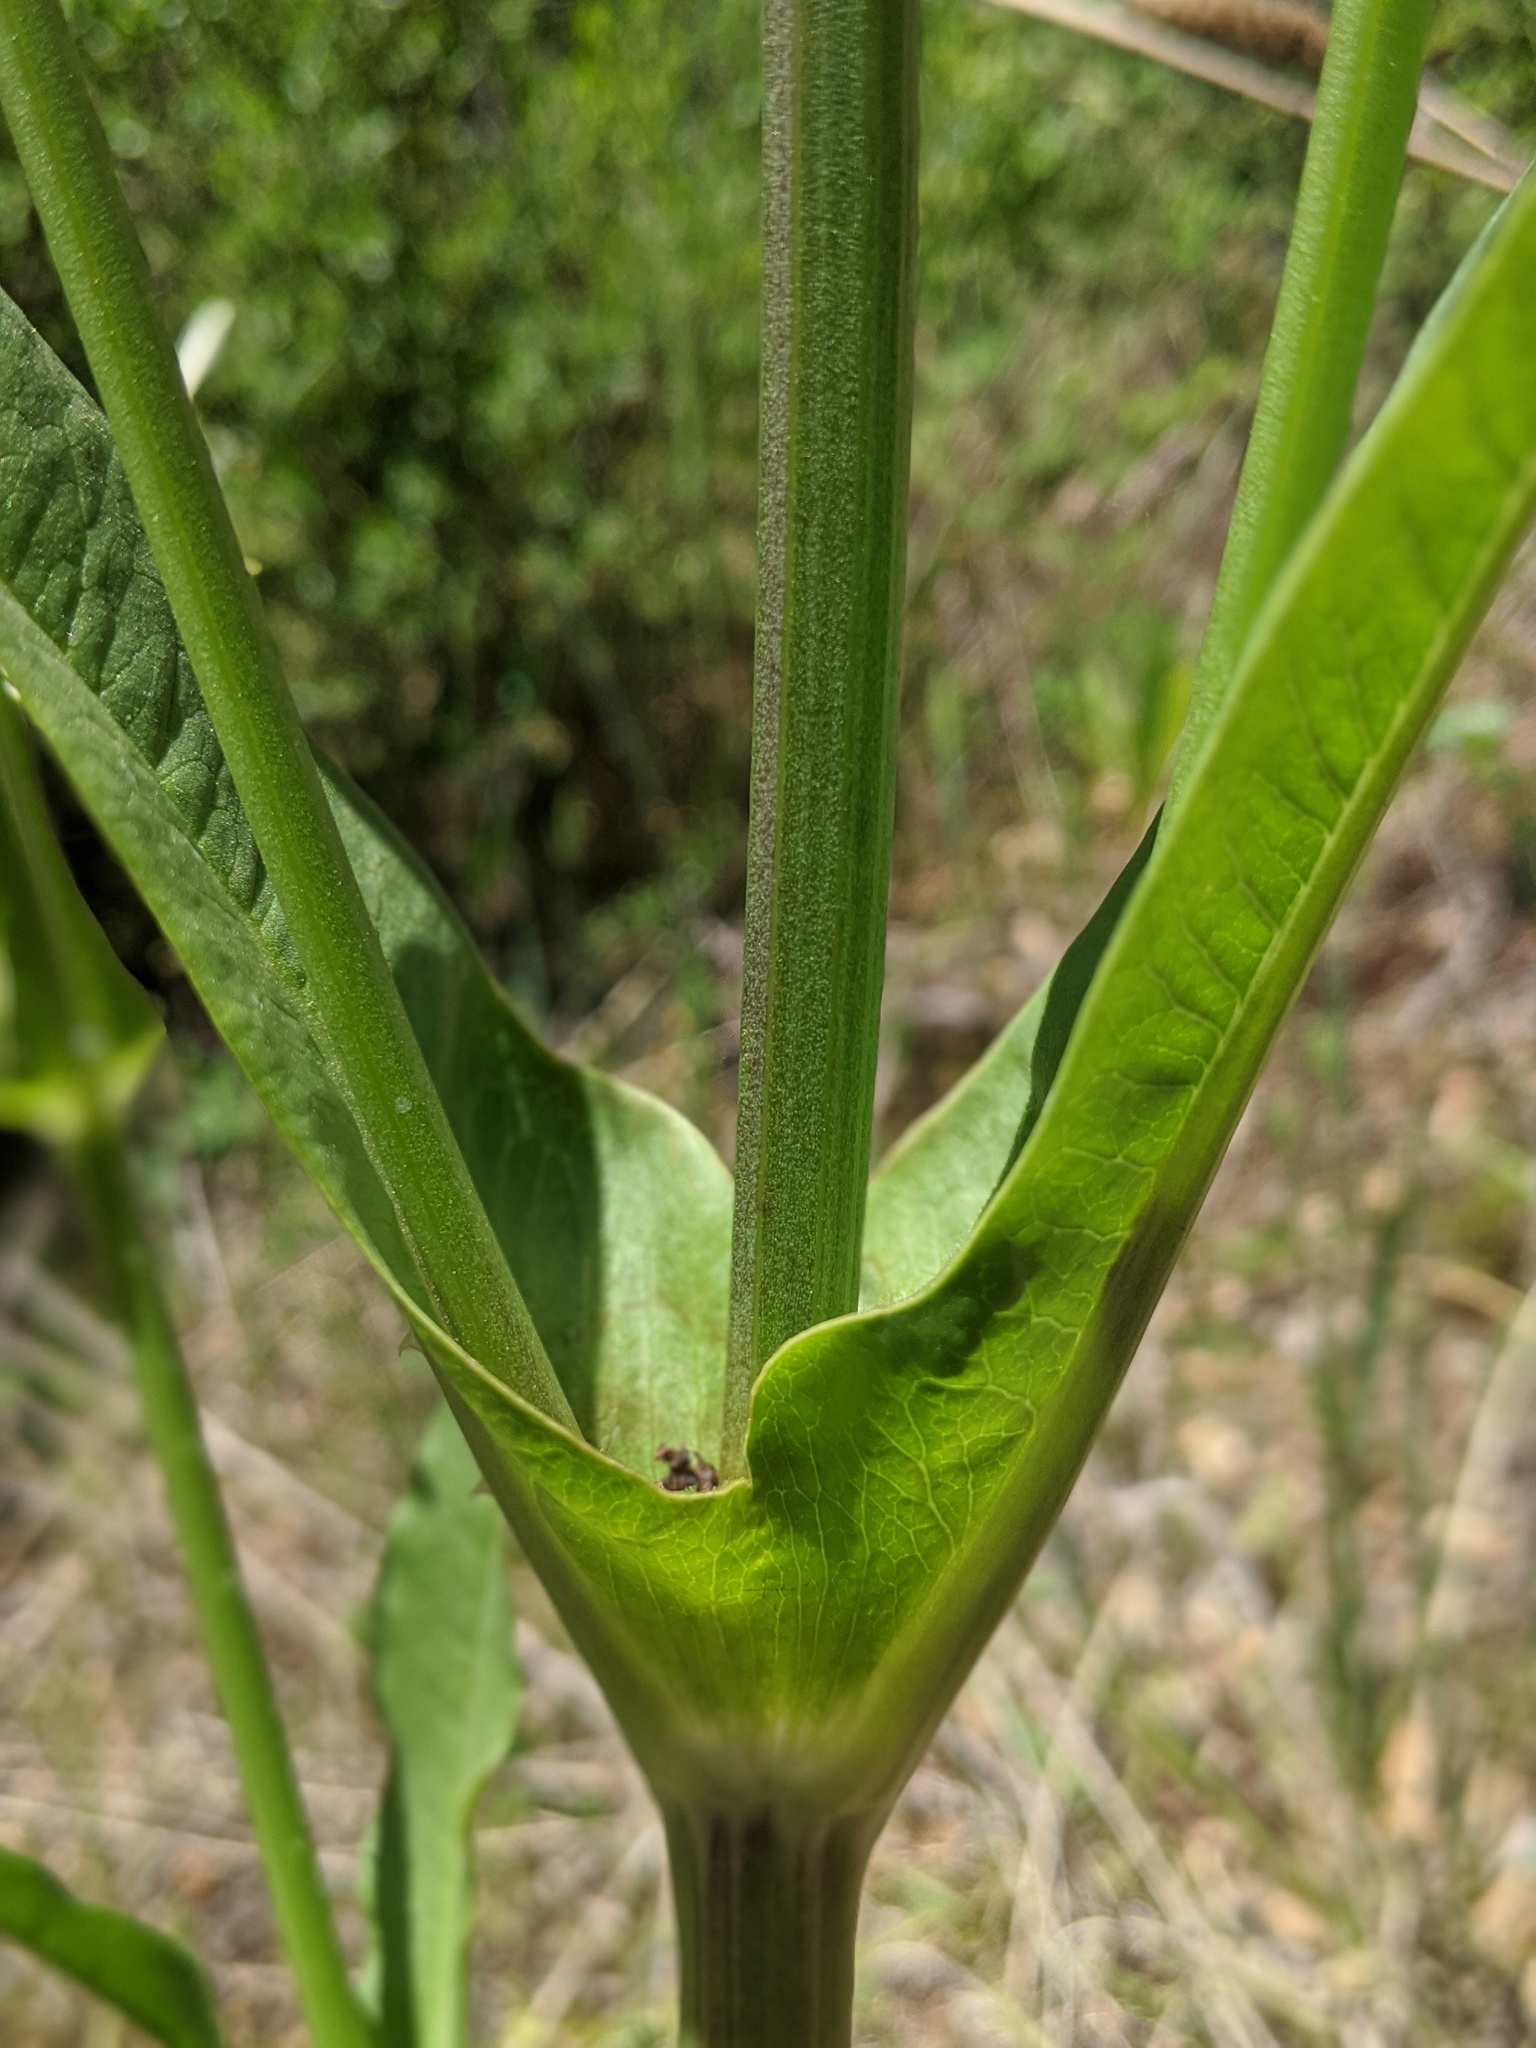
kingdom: Plantae
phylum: Tracheophyta
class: Magnoliopsida
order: Dipsacales
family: Caprifoliaceae
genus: Dipsacus
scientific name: Dipsacus sativus
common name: Fuller's teasel
